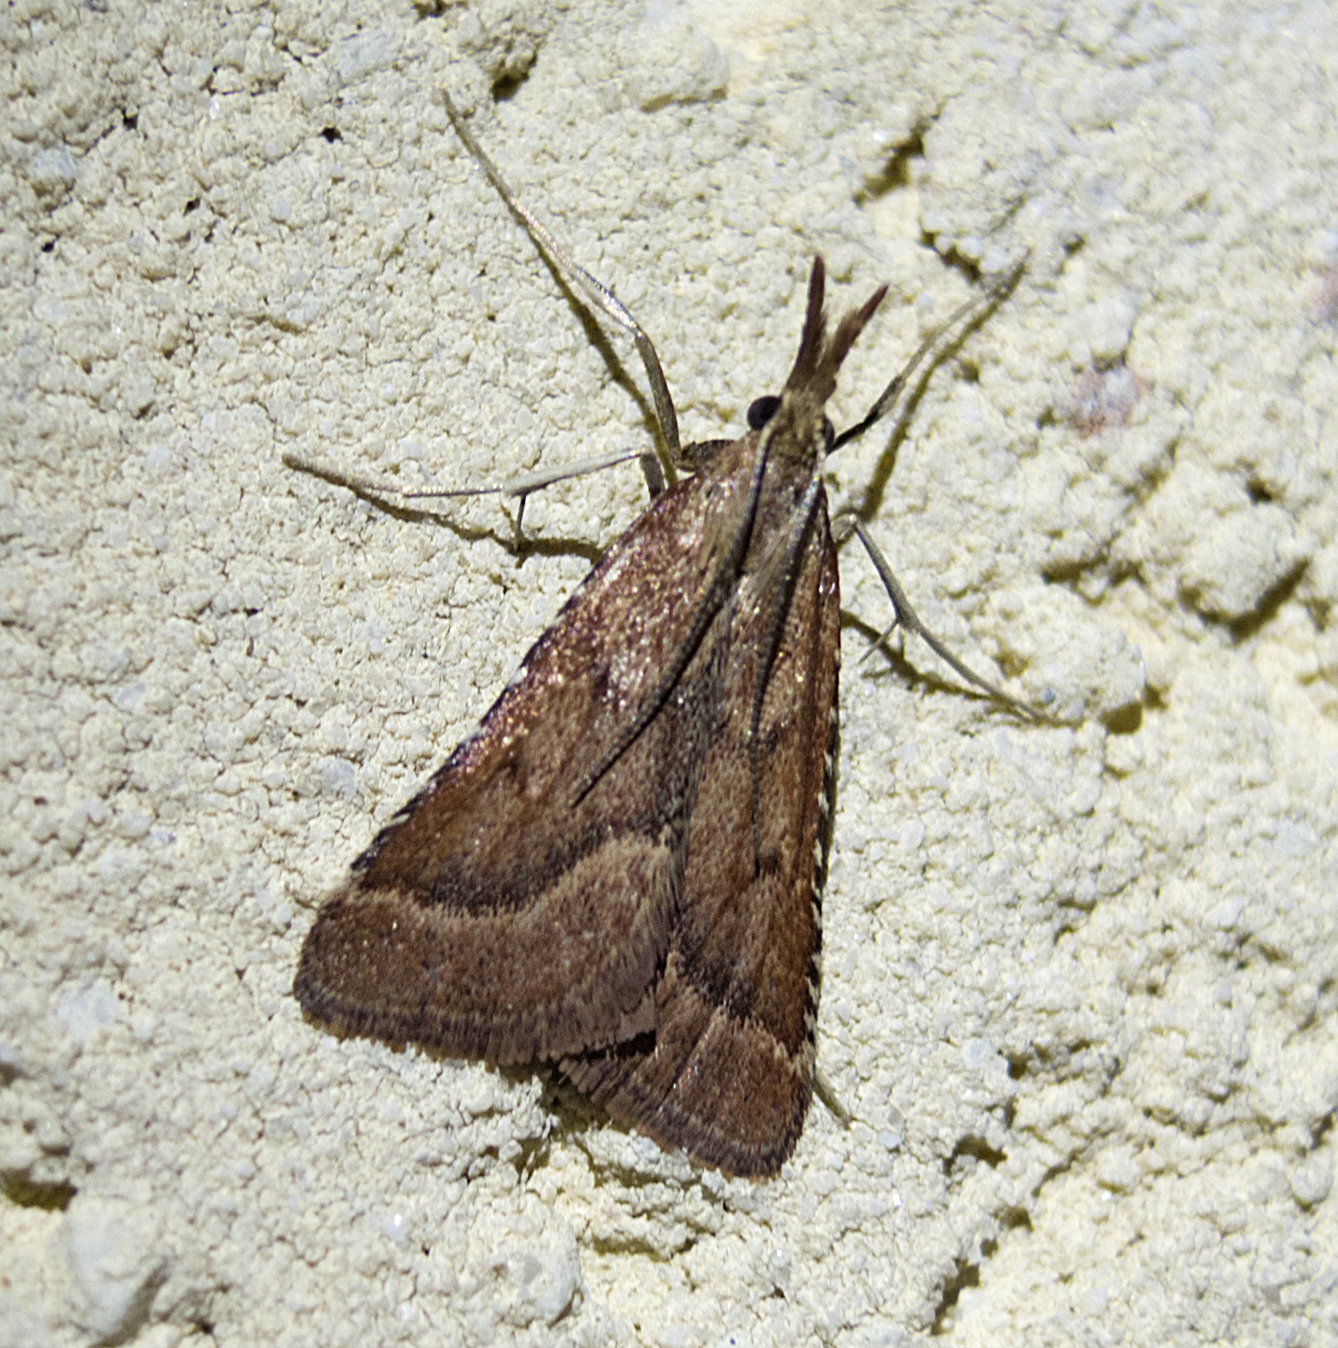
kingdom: Animalia
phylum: Arthropoda
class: Insecta
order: Lepidoptera
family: Pyralidae
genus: Synaphe
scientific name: Synaphe punctalis
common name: Long-legged tabby
